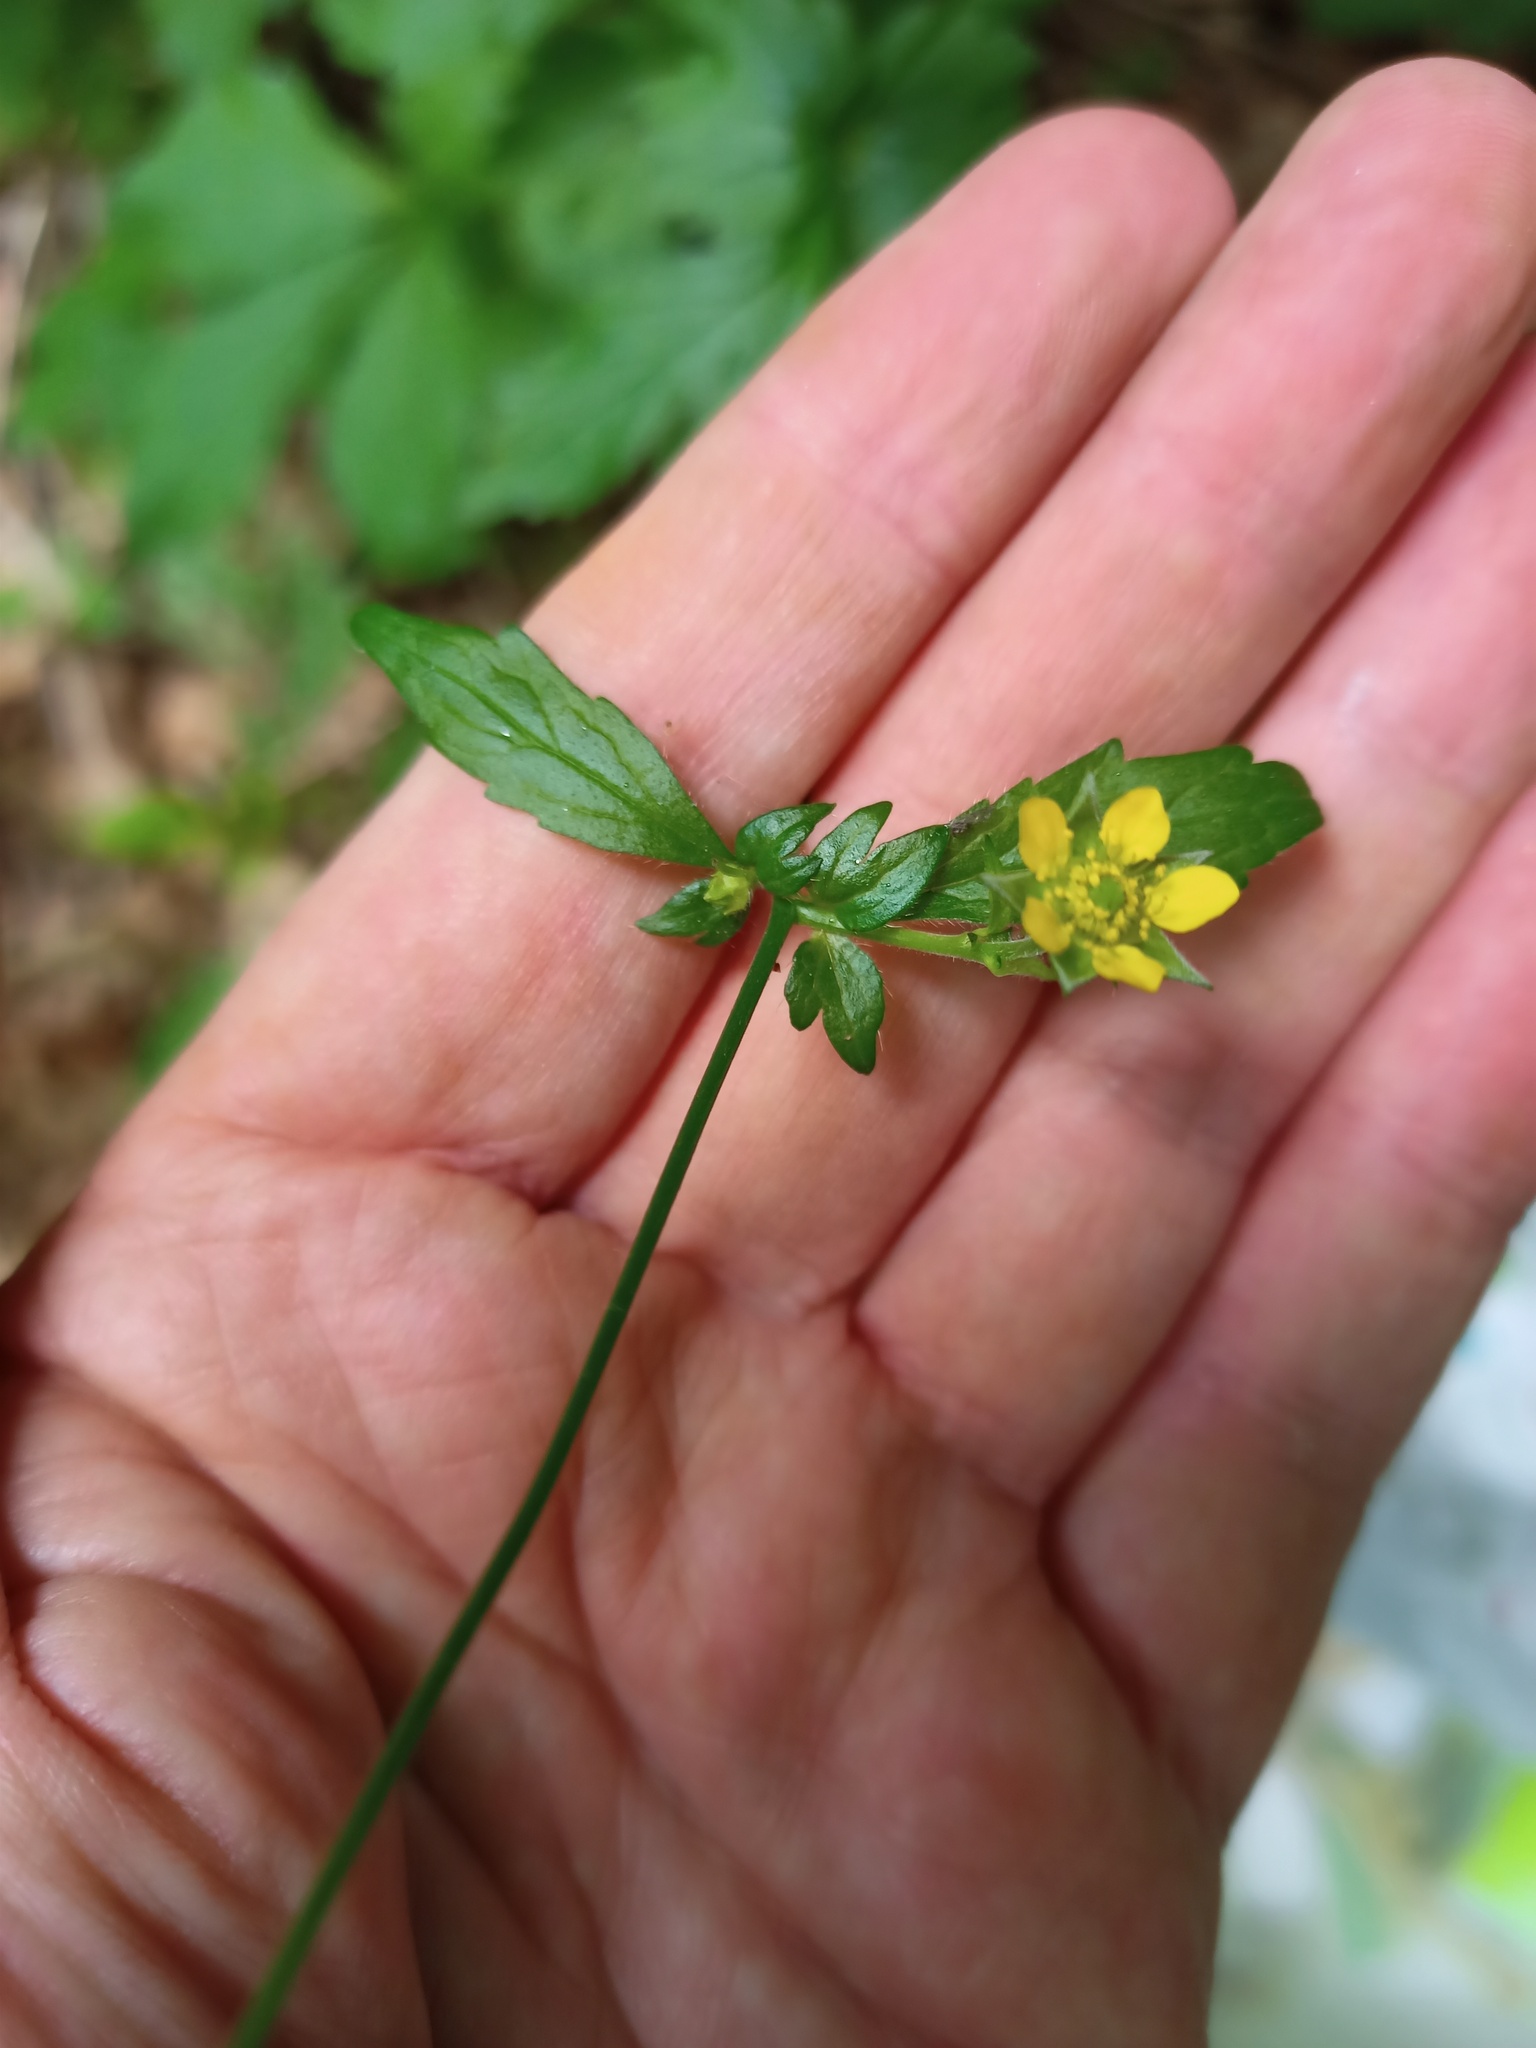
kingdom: Plantae
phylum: Tracheophyta
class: Magnoliopsida
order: Rosales
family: Rosaceae
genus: Geum
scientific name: Geum urbanum
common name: Wood avens
